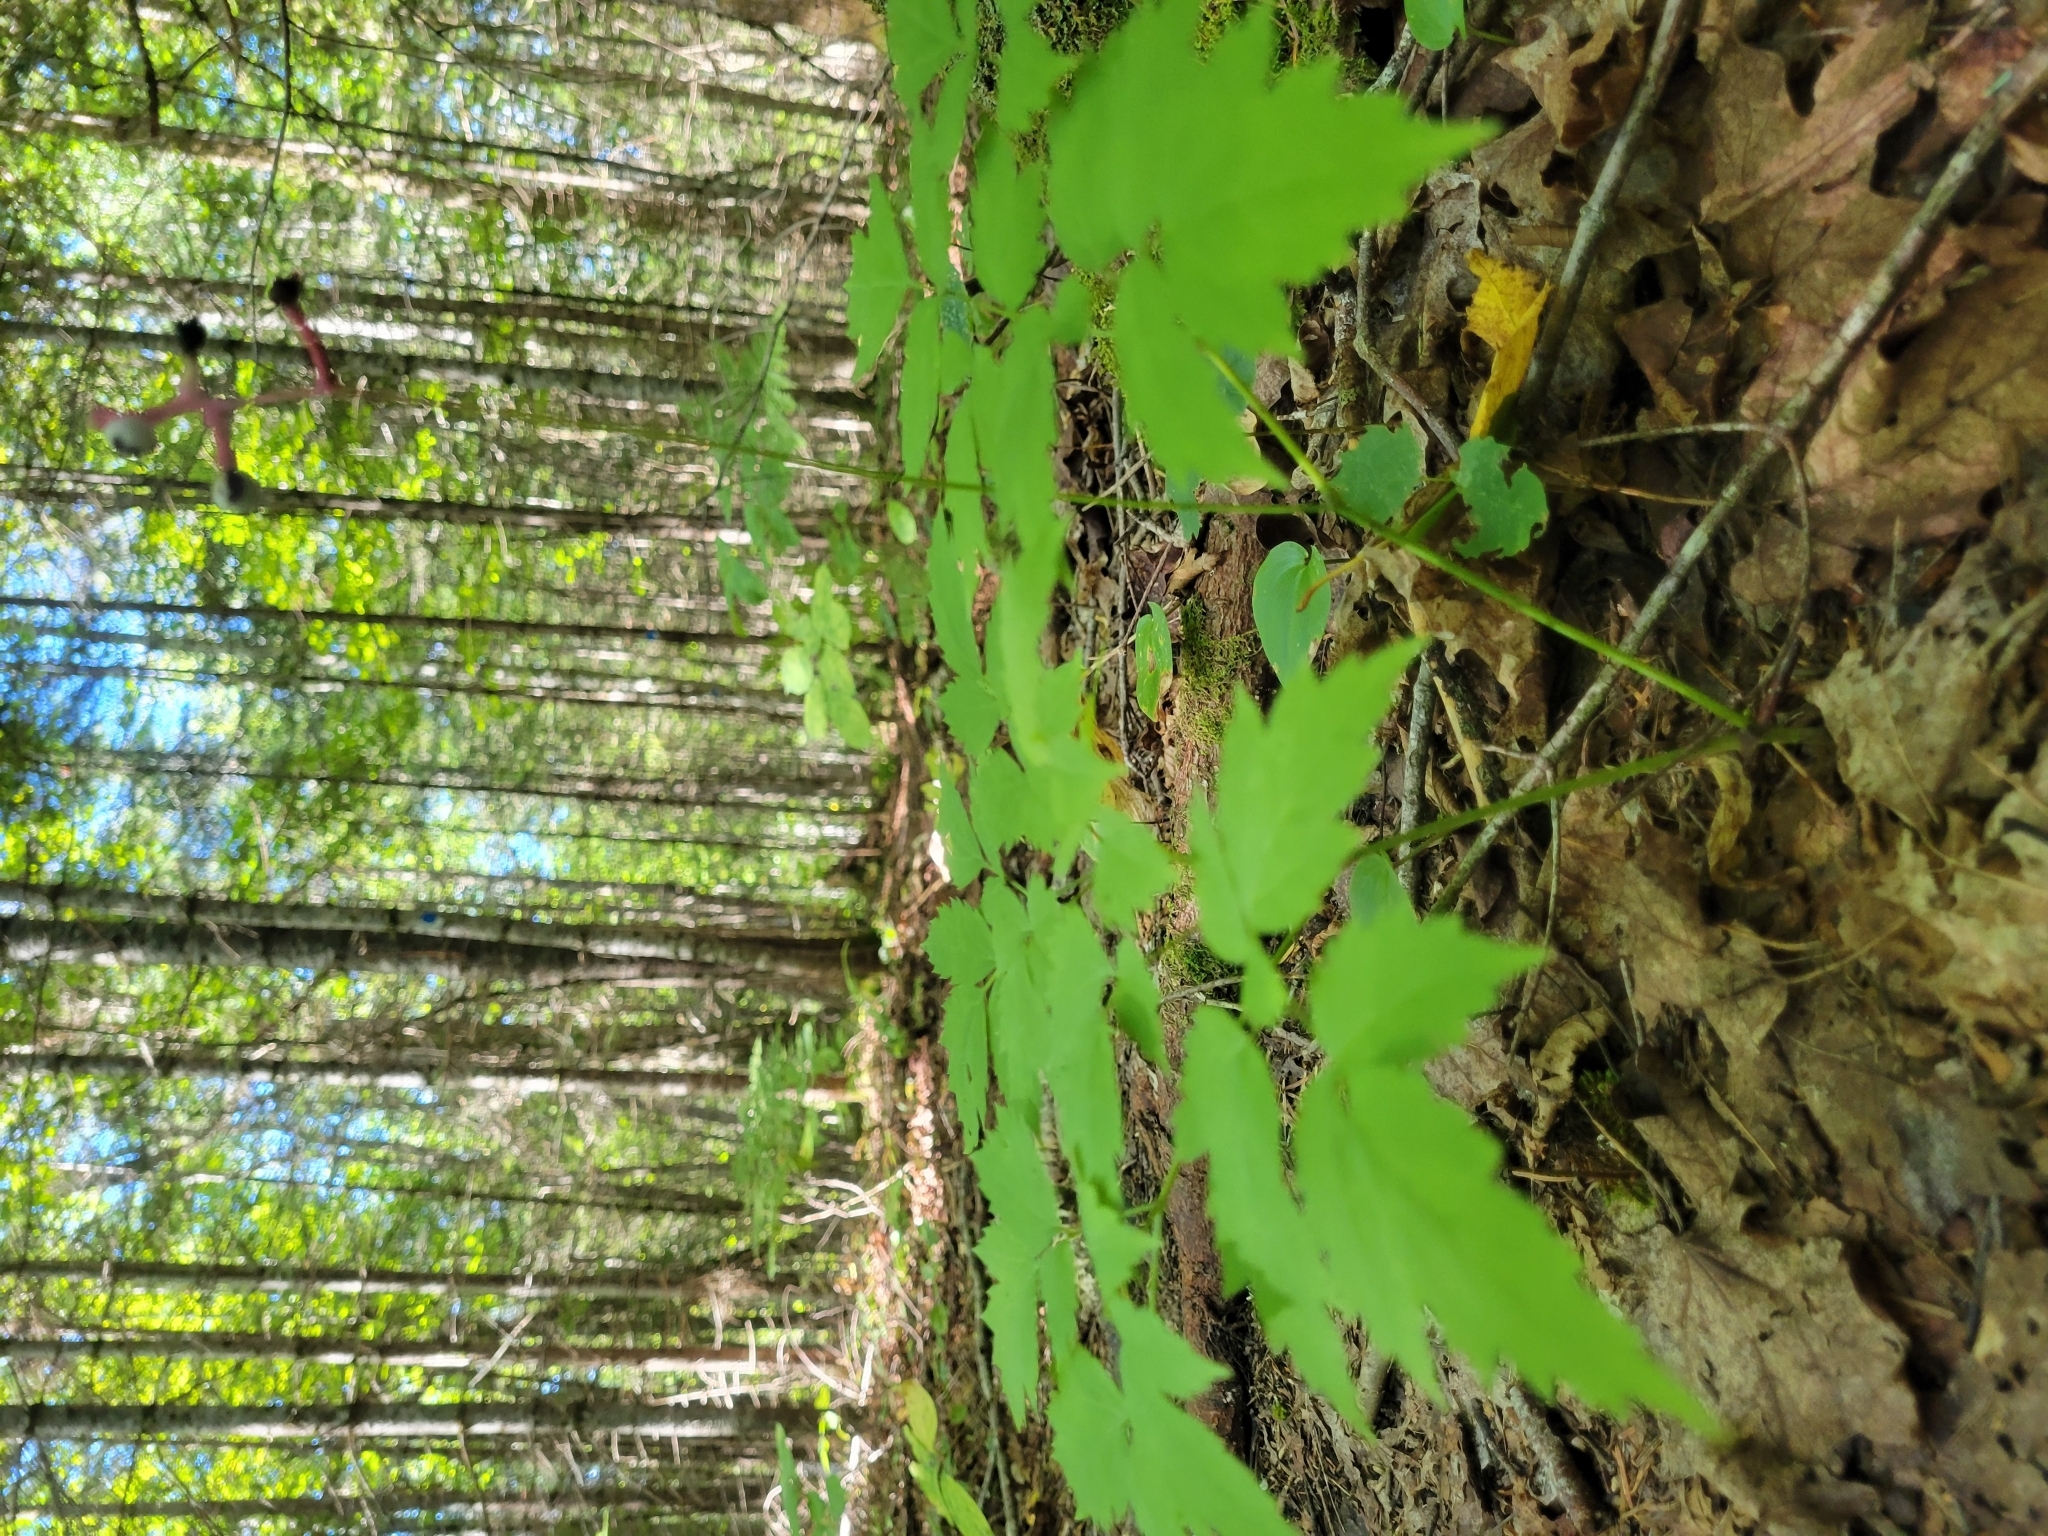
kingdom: Plantae
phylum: Tracheophyta
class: Magnoliopsida
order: Ranunculales
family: Ranunculaceae
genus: Actaea
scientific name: Actaea pachypoda
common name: Doll's-eyes
